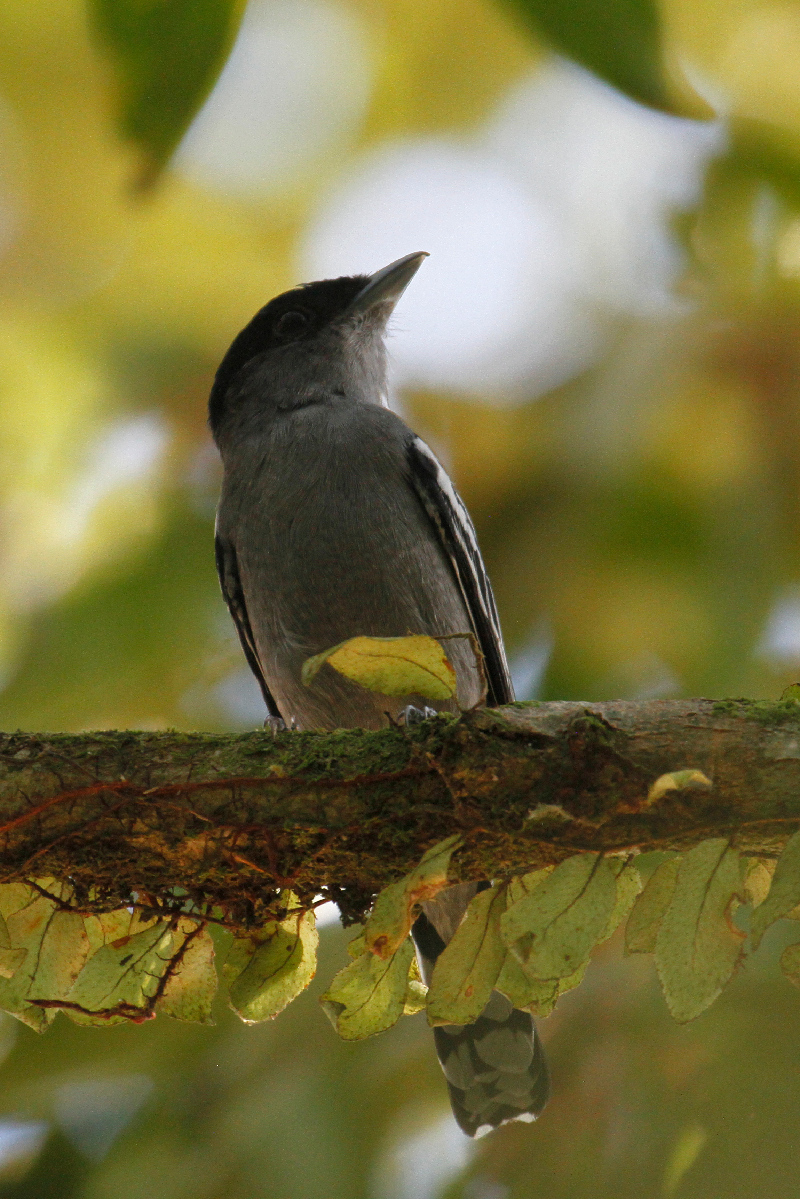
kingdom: Animalia
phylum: Chordata
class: Aves
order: Passeriformes
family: Cotingidae
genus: Pachyramphus
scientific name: Pachyramphus polychopterus
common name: White-winged becard
